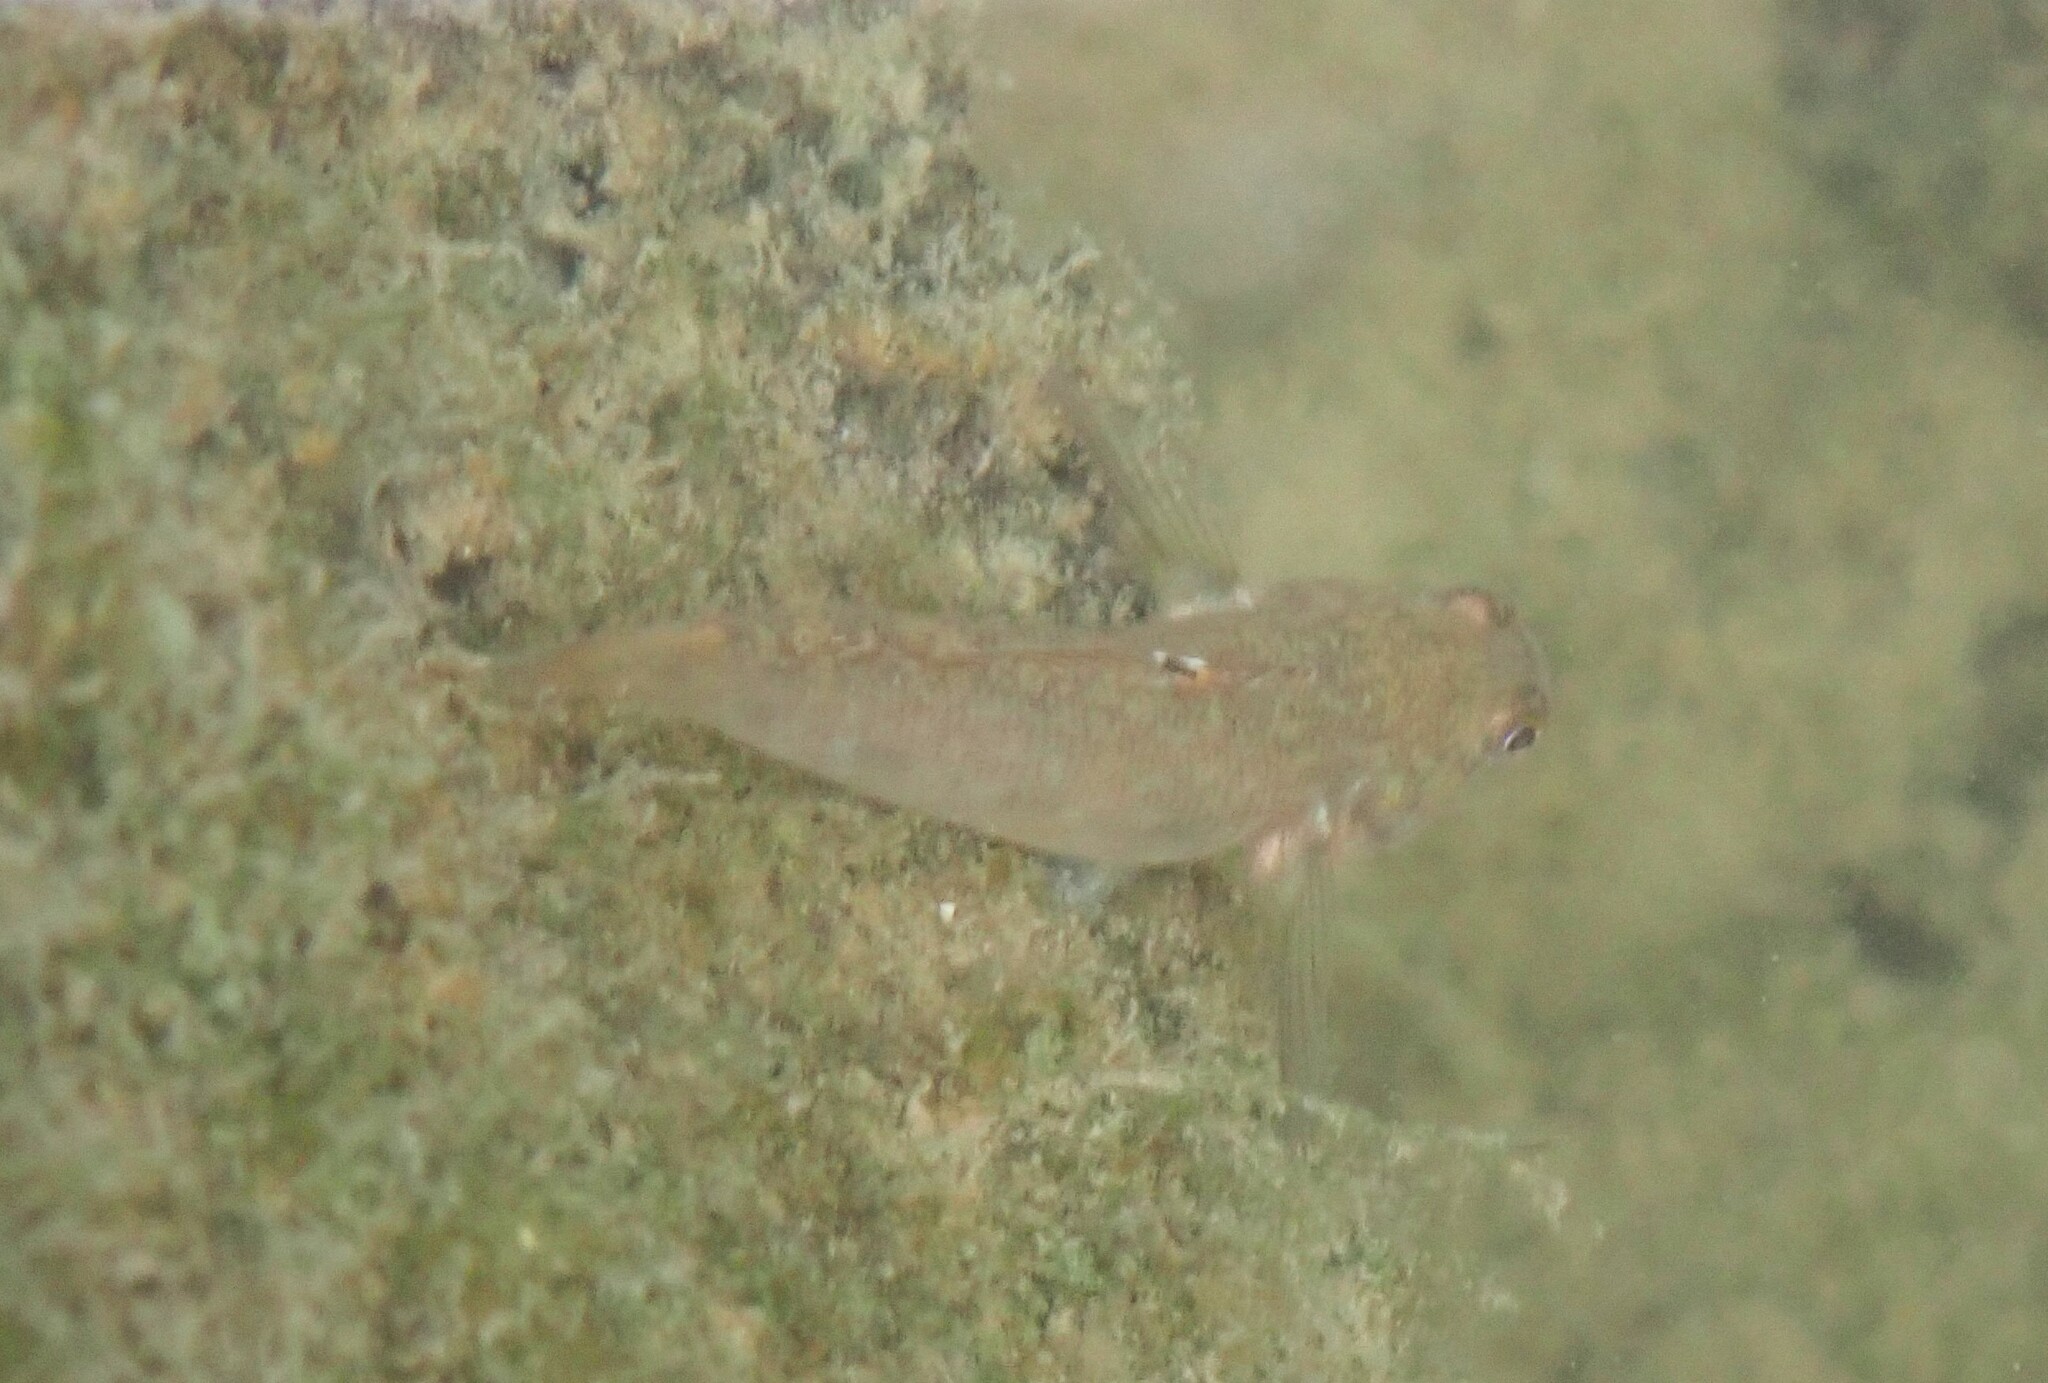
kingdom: Animalia
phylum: Chordata
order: Perciformes
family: Gobiidae
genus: Neogobius
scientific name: Neogobius melanostomus
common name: Round goby
